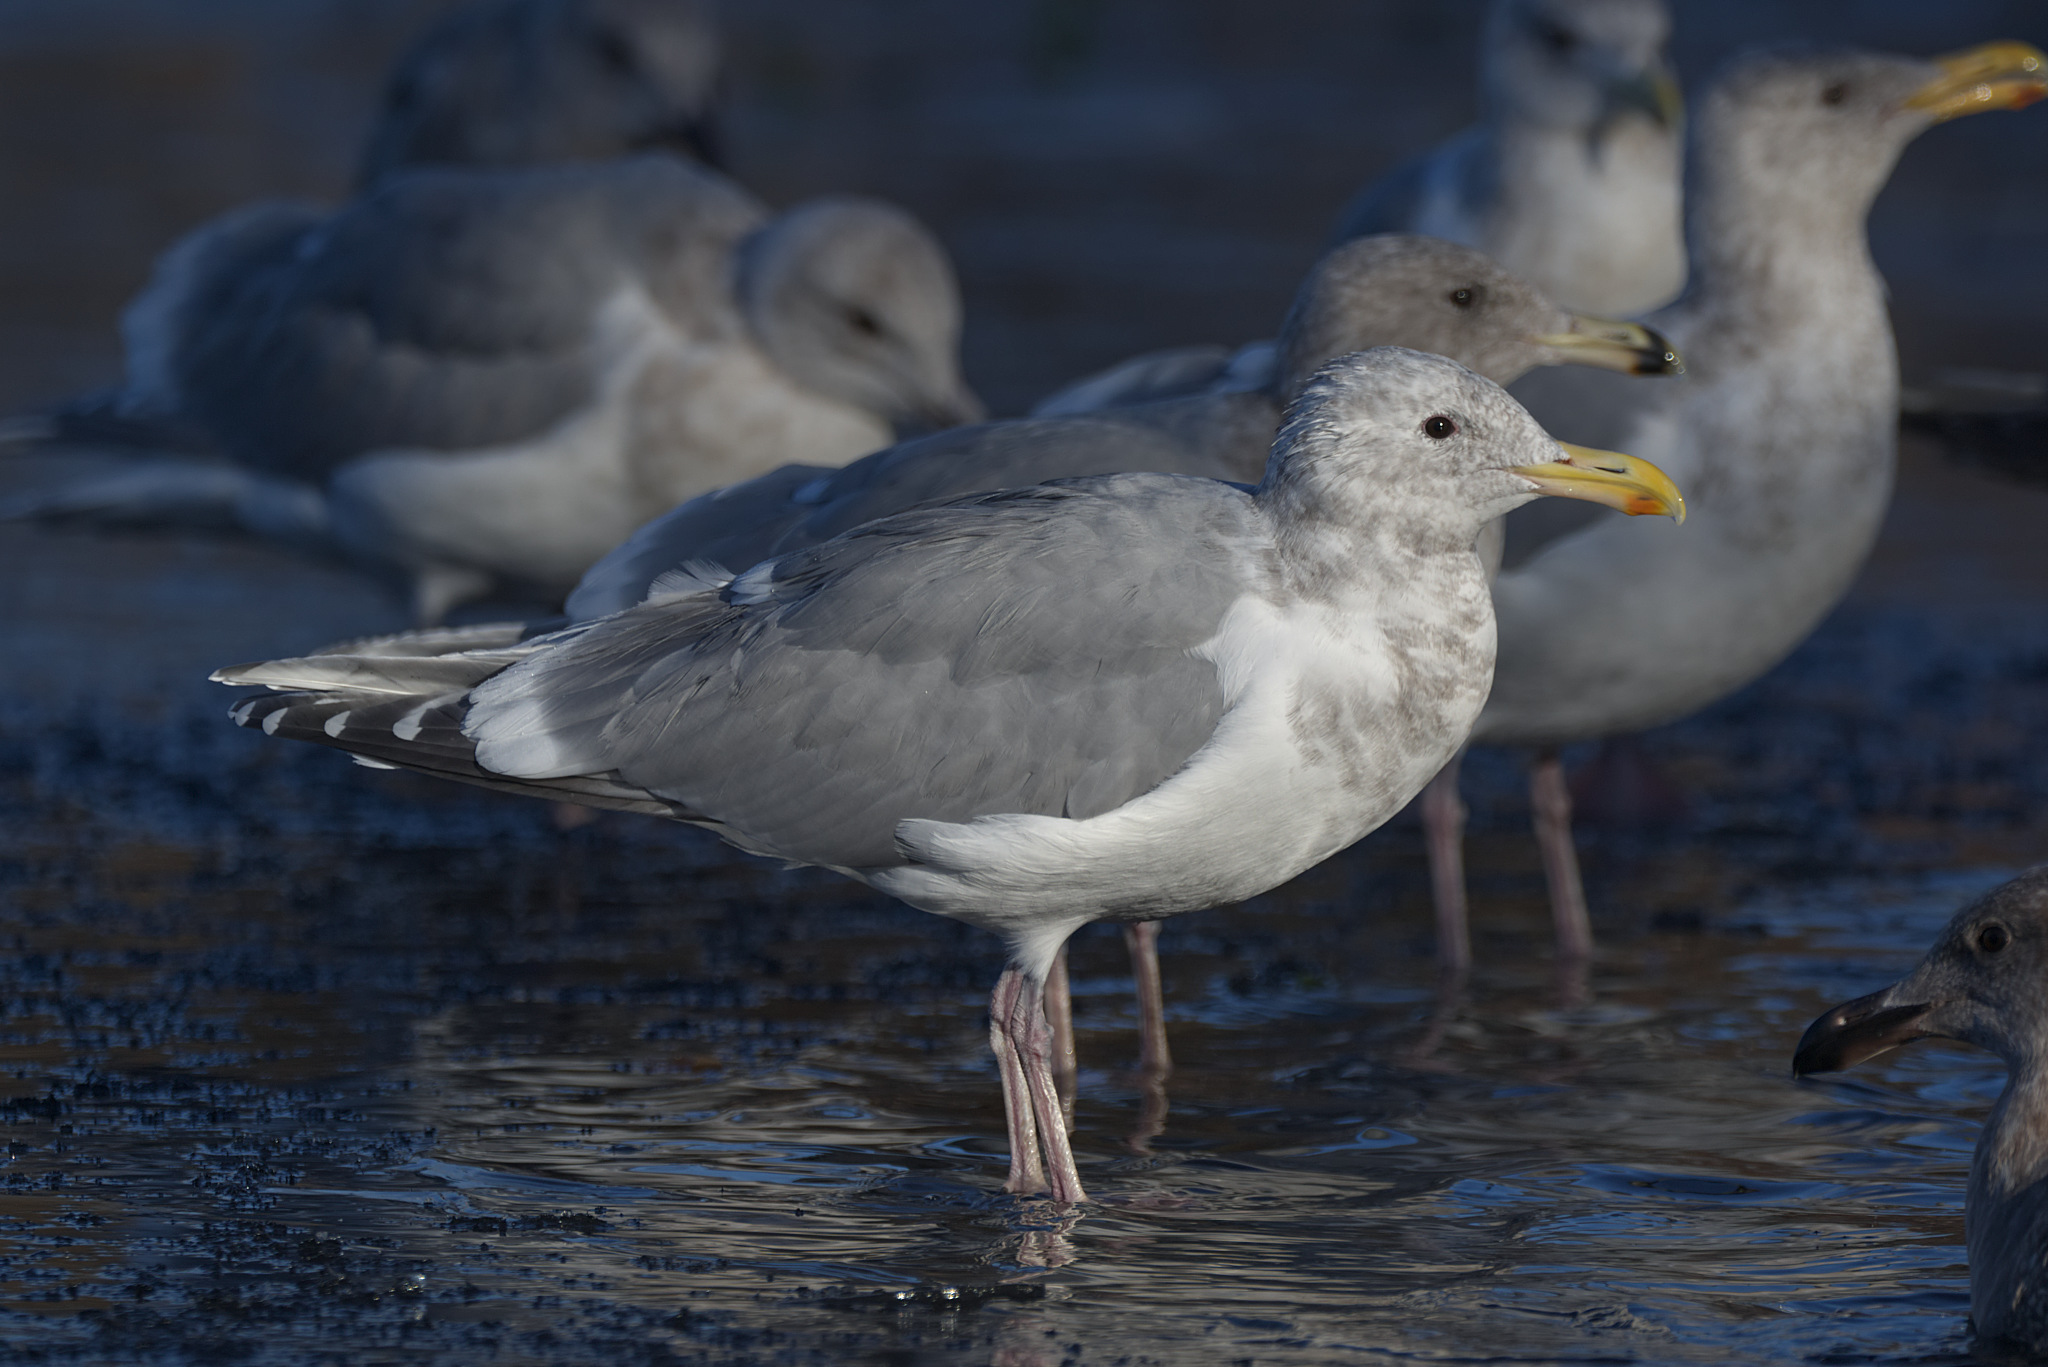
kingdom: Animalia
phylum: Chordata
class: Aves
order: Charadriiformes
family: Laridae
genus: Larus
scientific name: Larus
